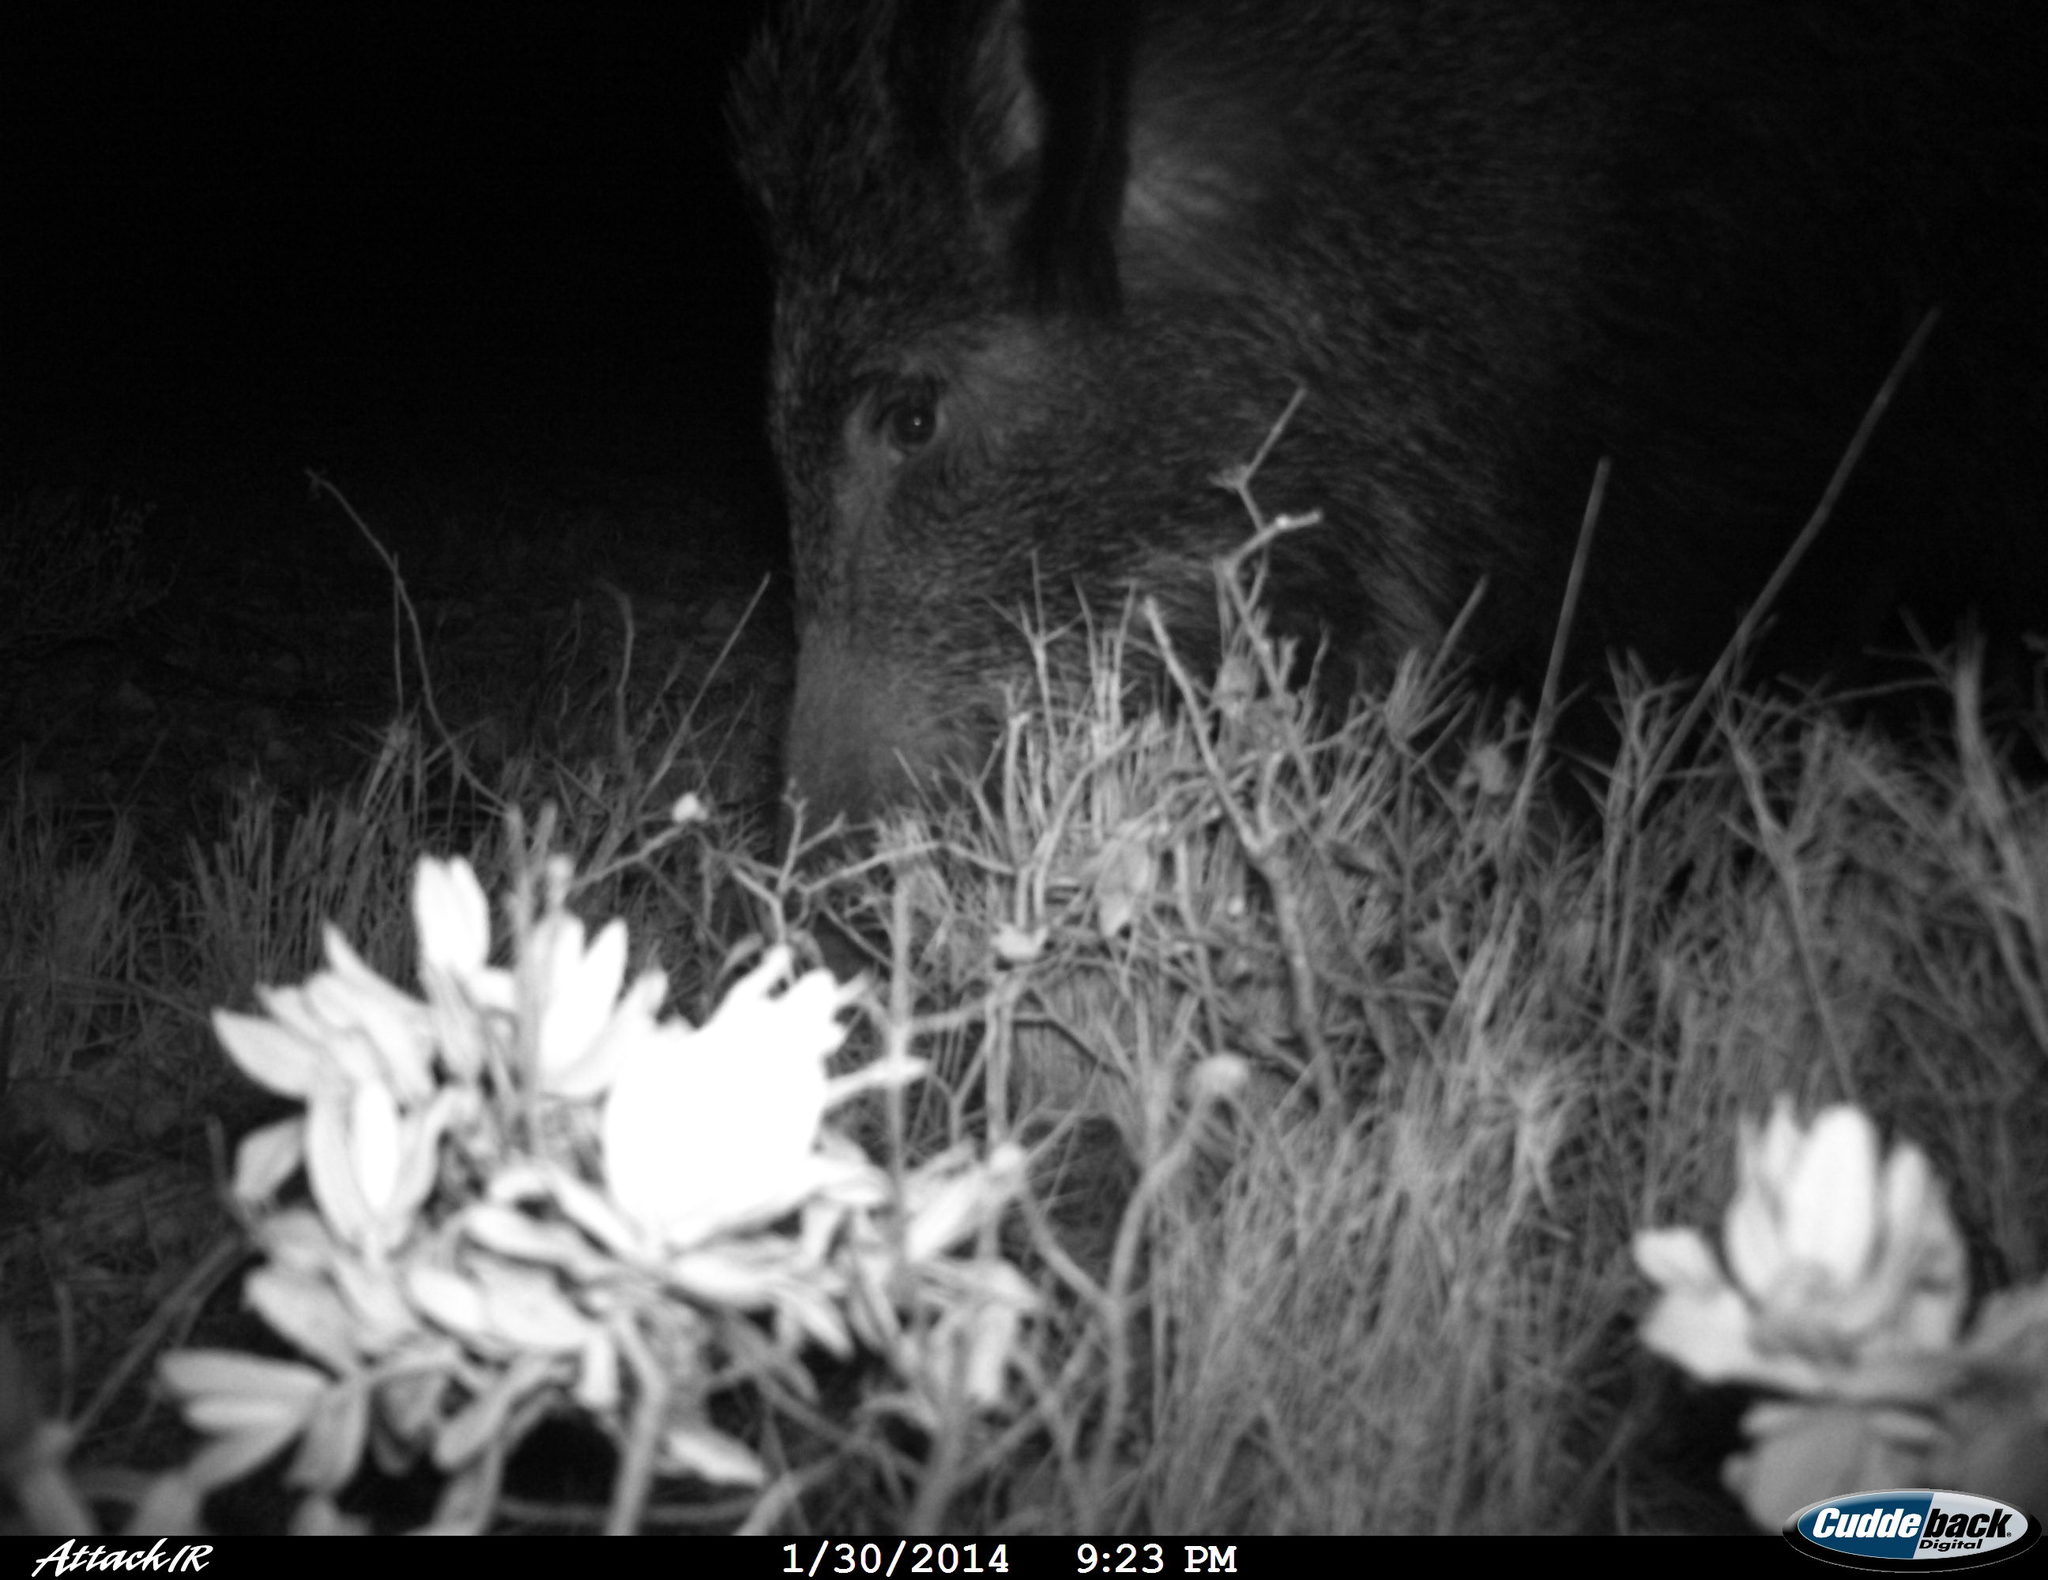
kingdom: Animalia
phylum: Chordata
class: Mammalia
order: Artiodactyla
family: Suidae
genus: Sus
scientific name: Sus scrofa
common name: Wild boar
